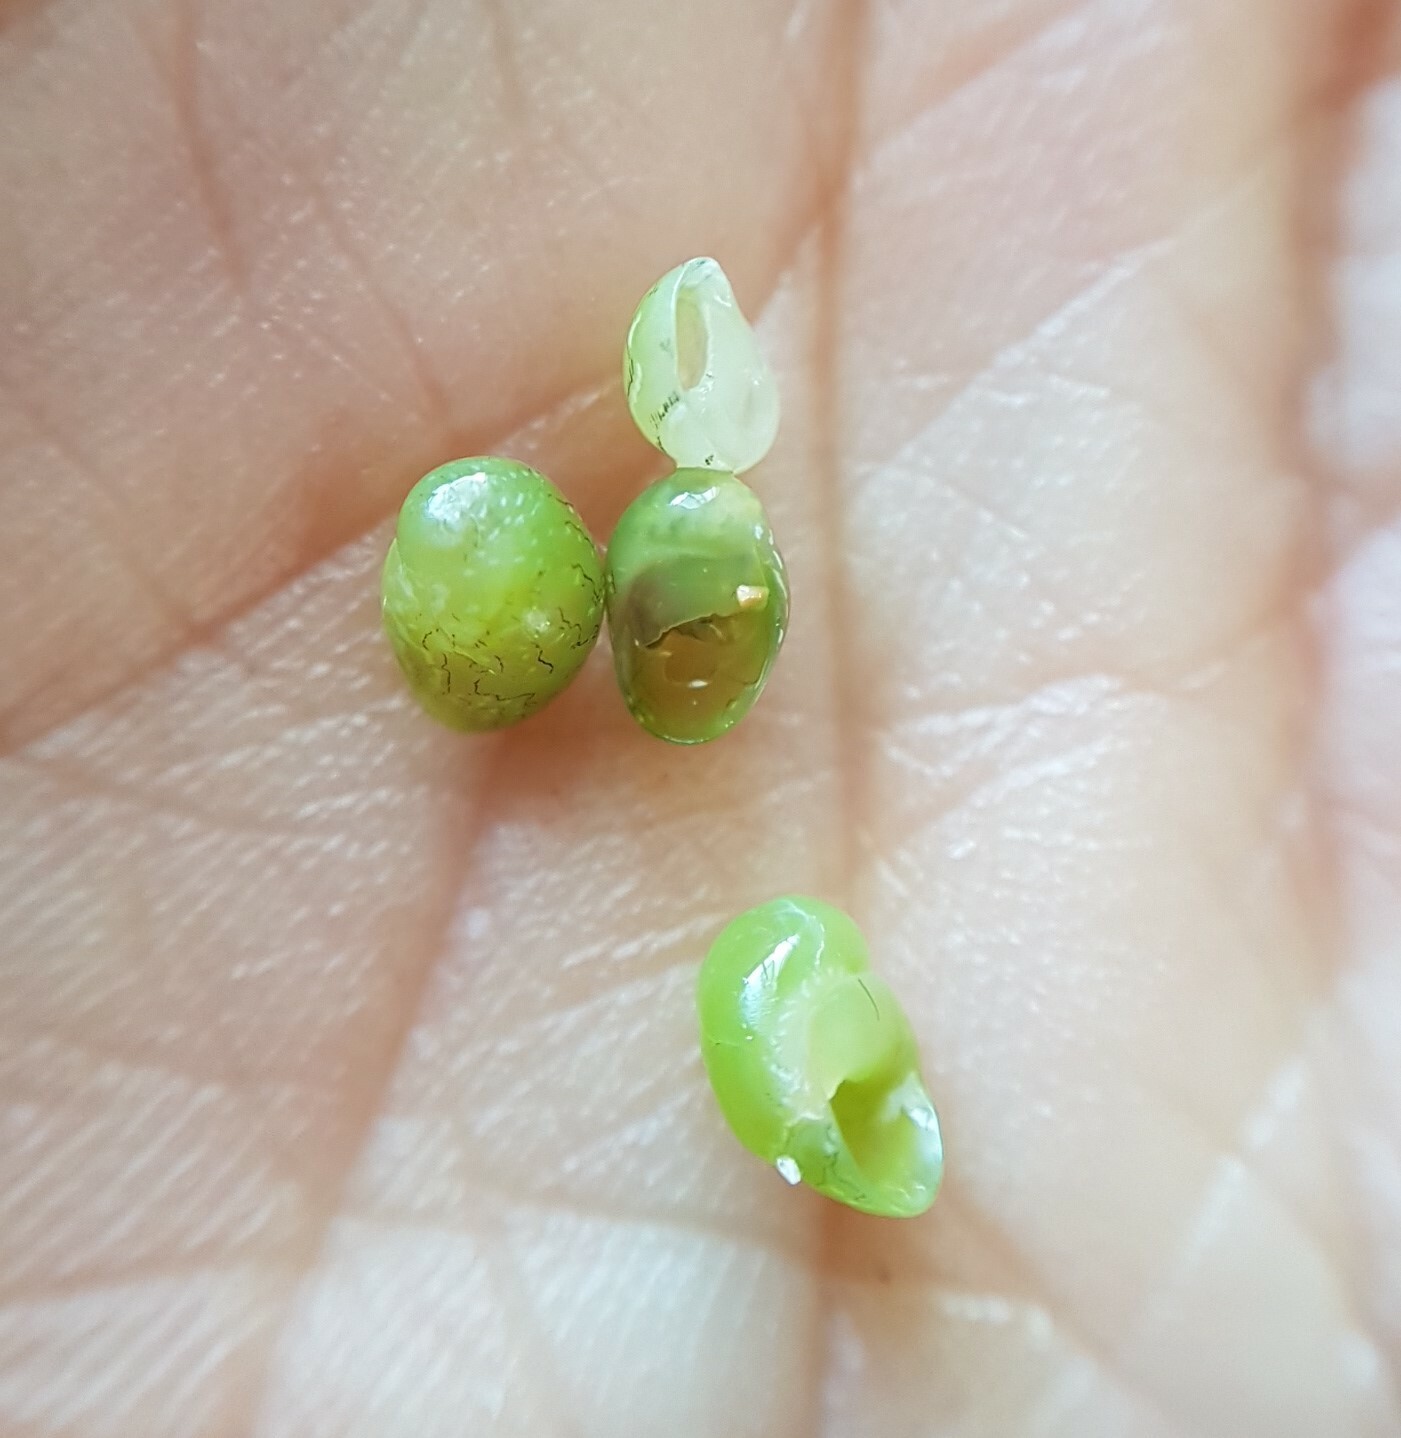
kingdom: Animalia
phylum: Mollusca
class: Gastropoda
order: Cycloneritida
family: Neritidae
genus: Smaragdia
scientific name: Smaragdia viridis
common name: Emerald nerite
